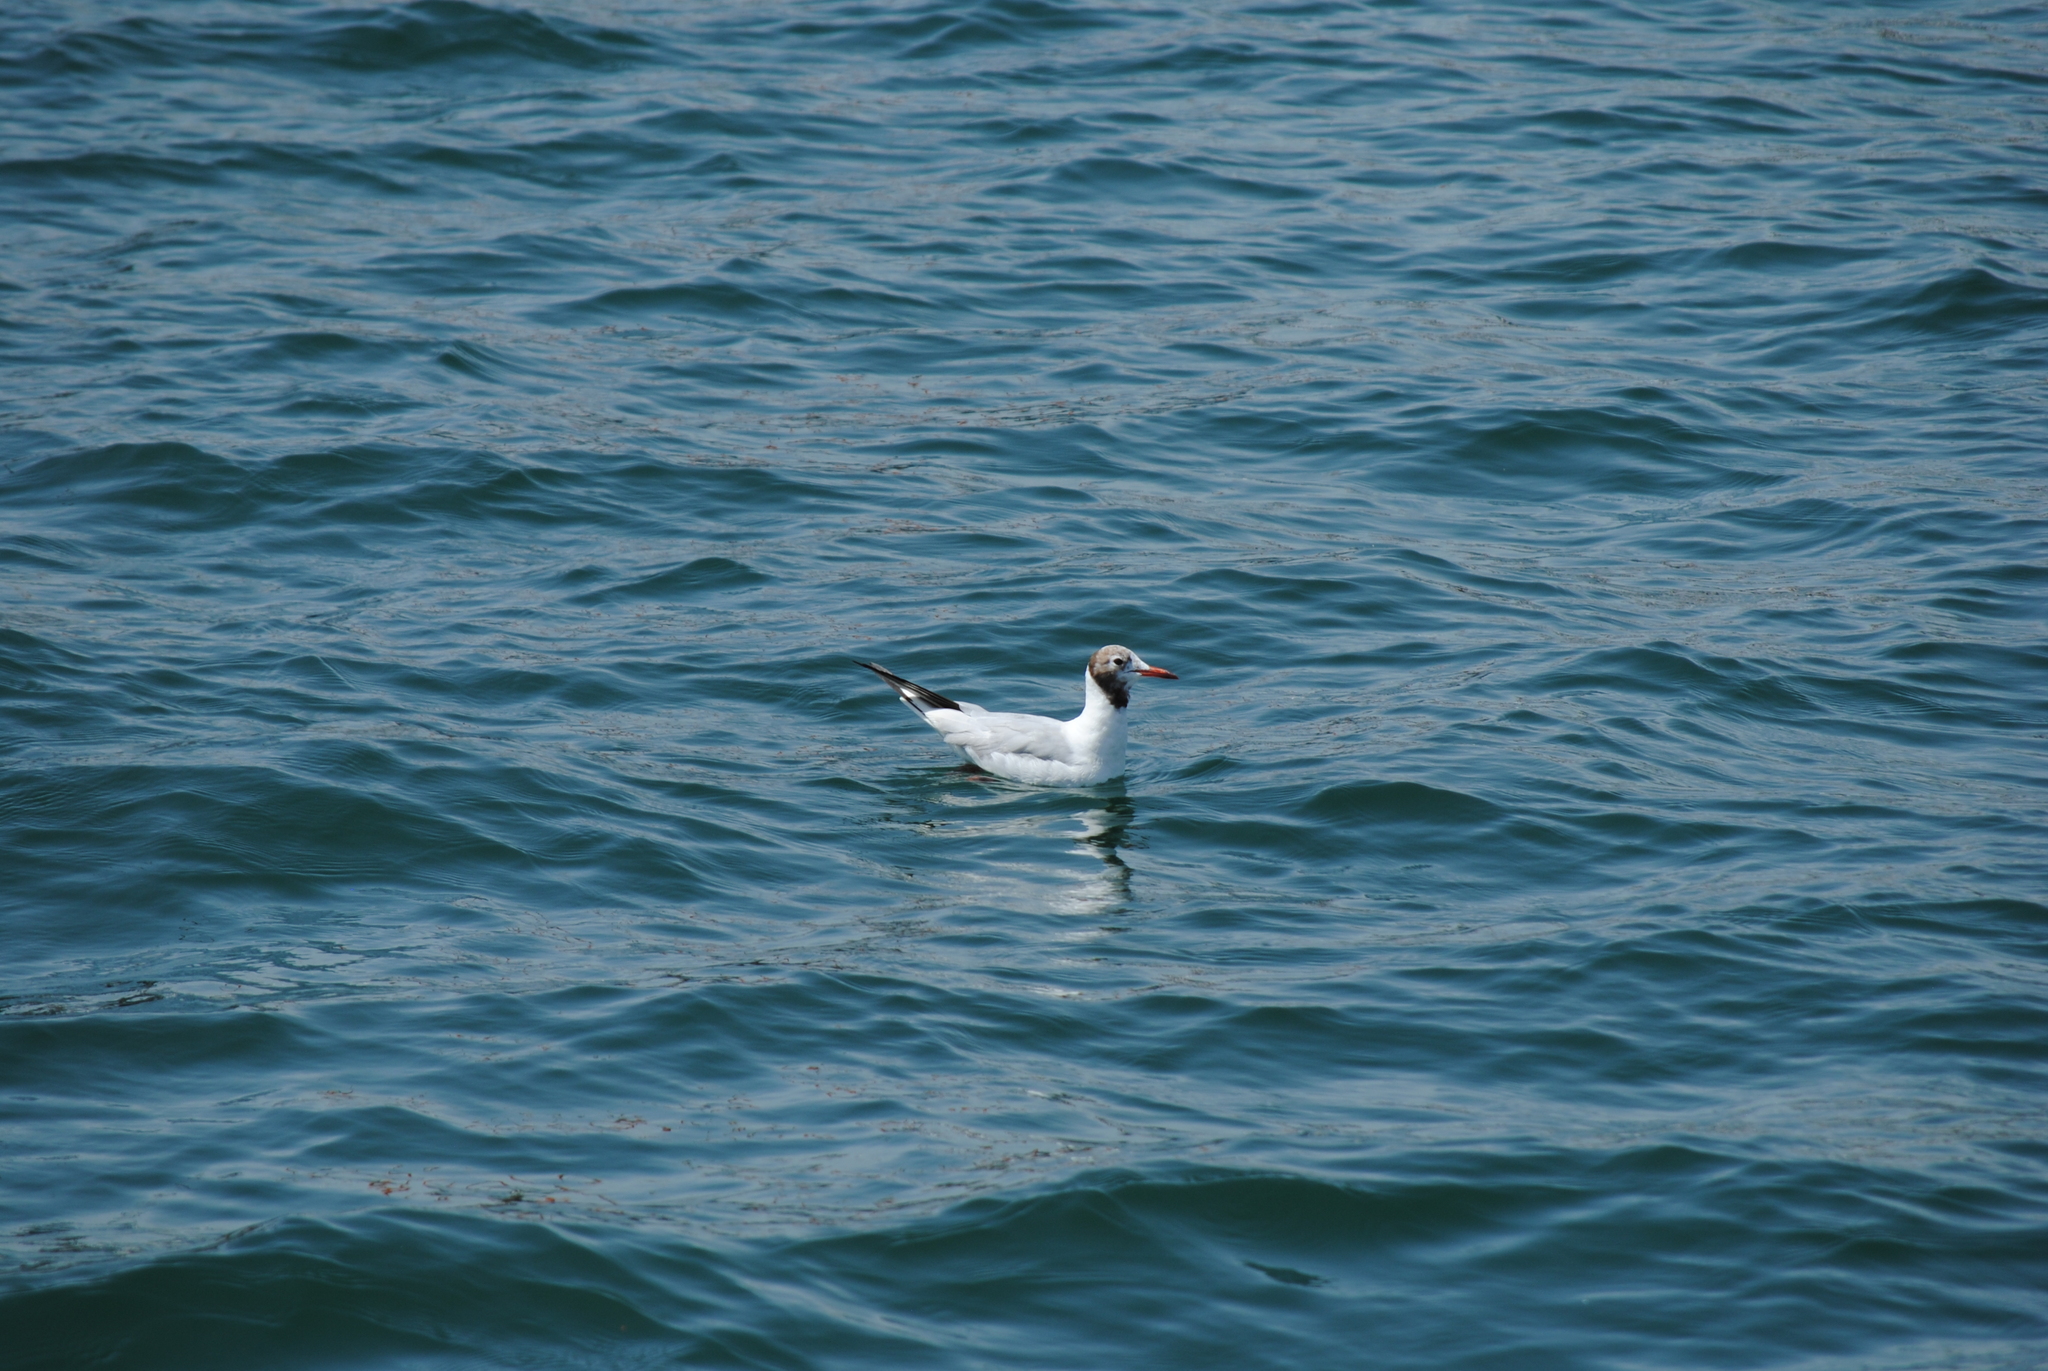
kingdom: Animalia
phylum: Chordata
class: Aves
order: Charadriiformes
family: Laridae
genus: Chroicocephalus
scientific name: Chroicocephalus ridibundus
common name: Black-headed gull
